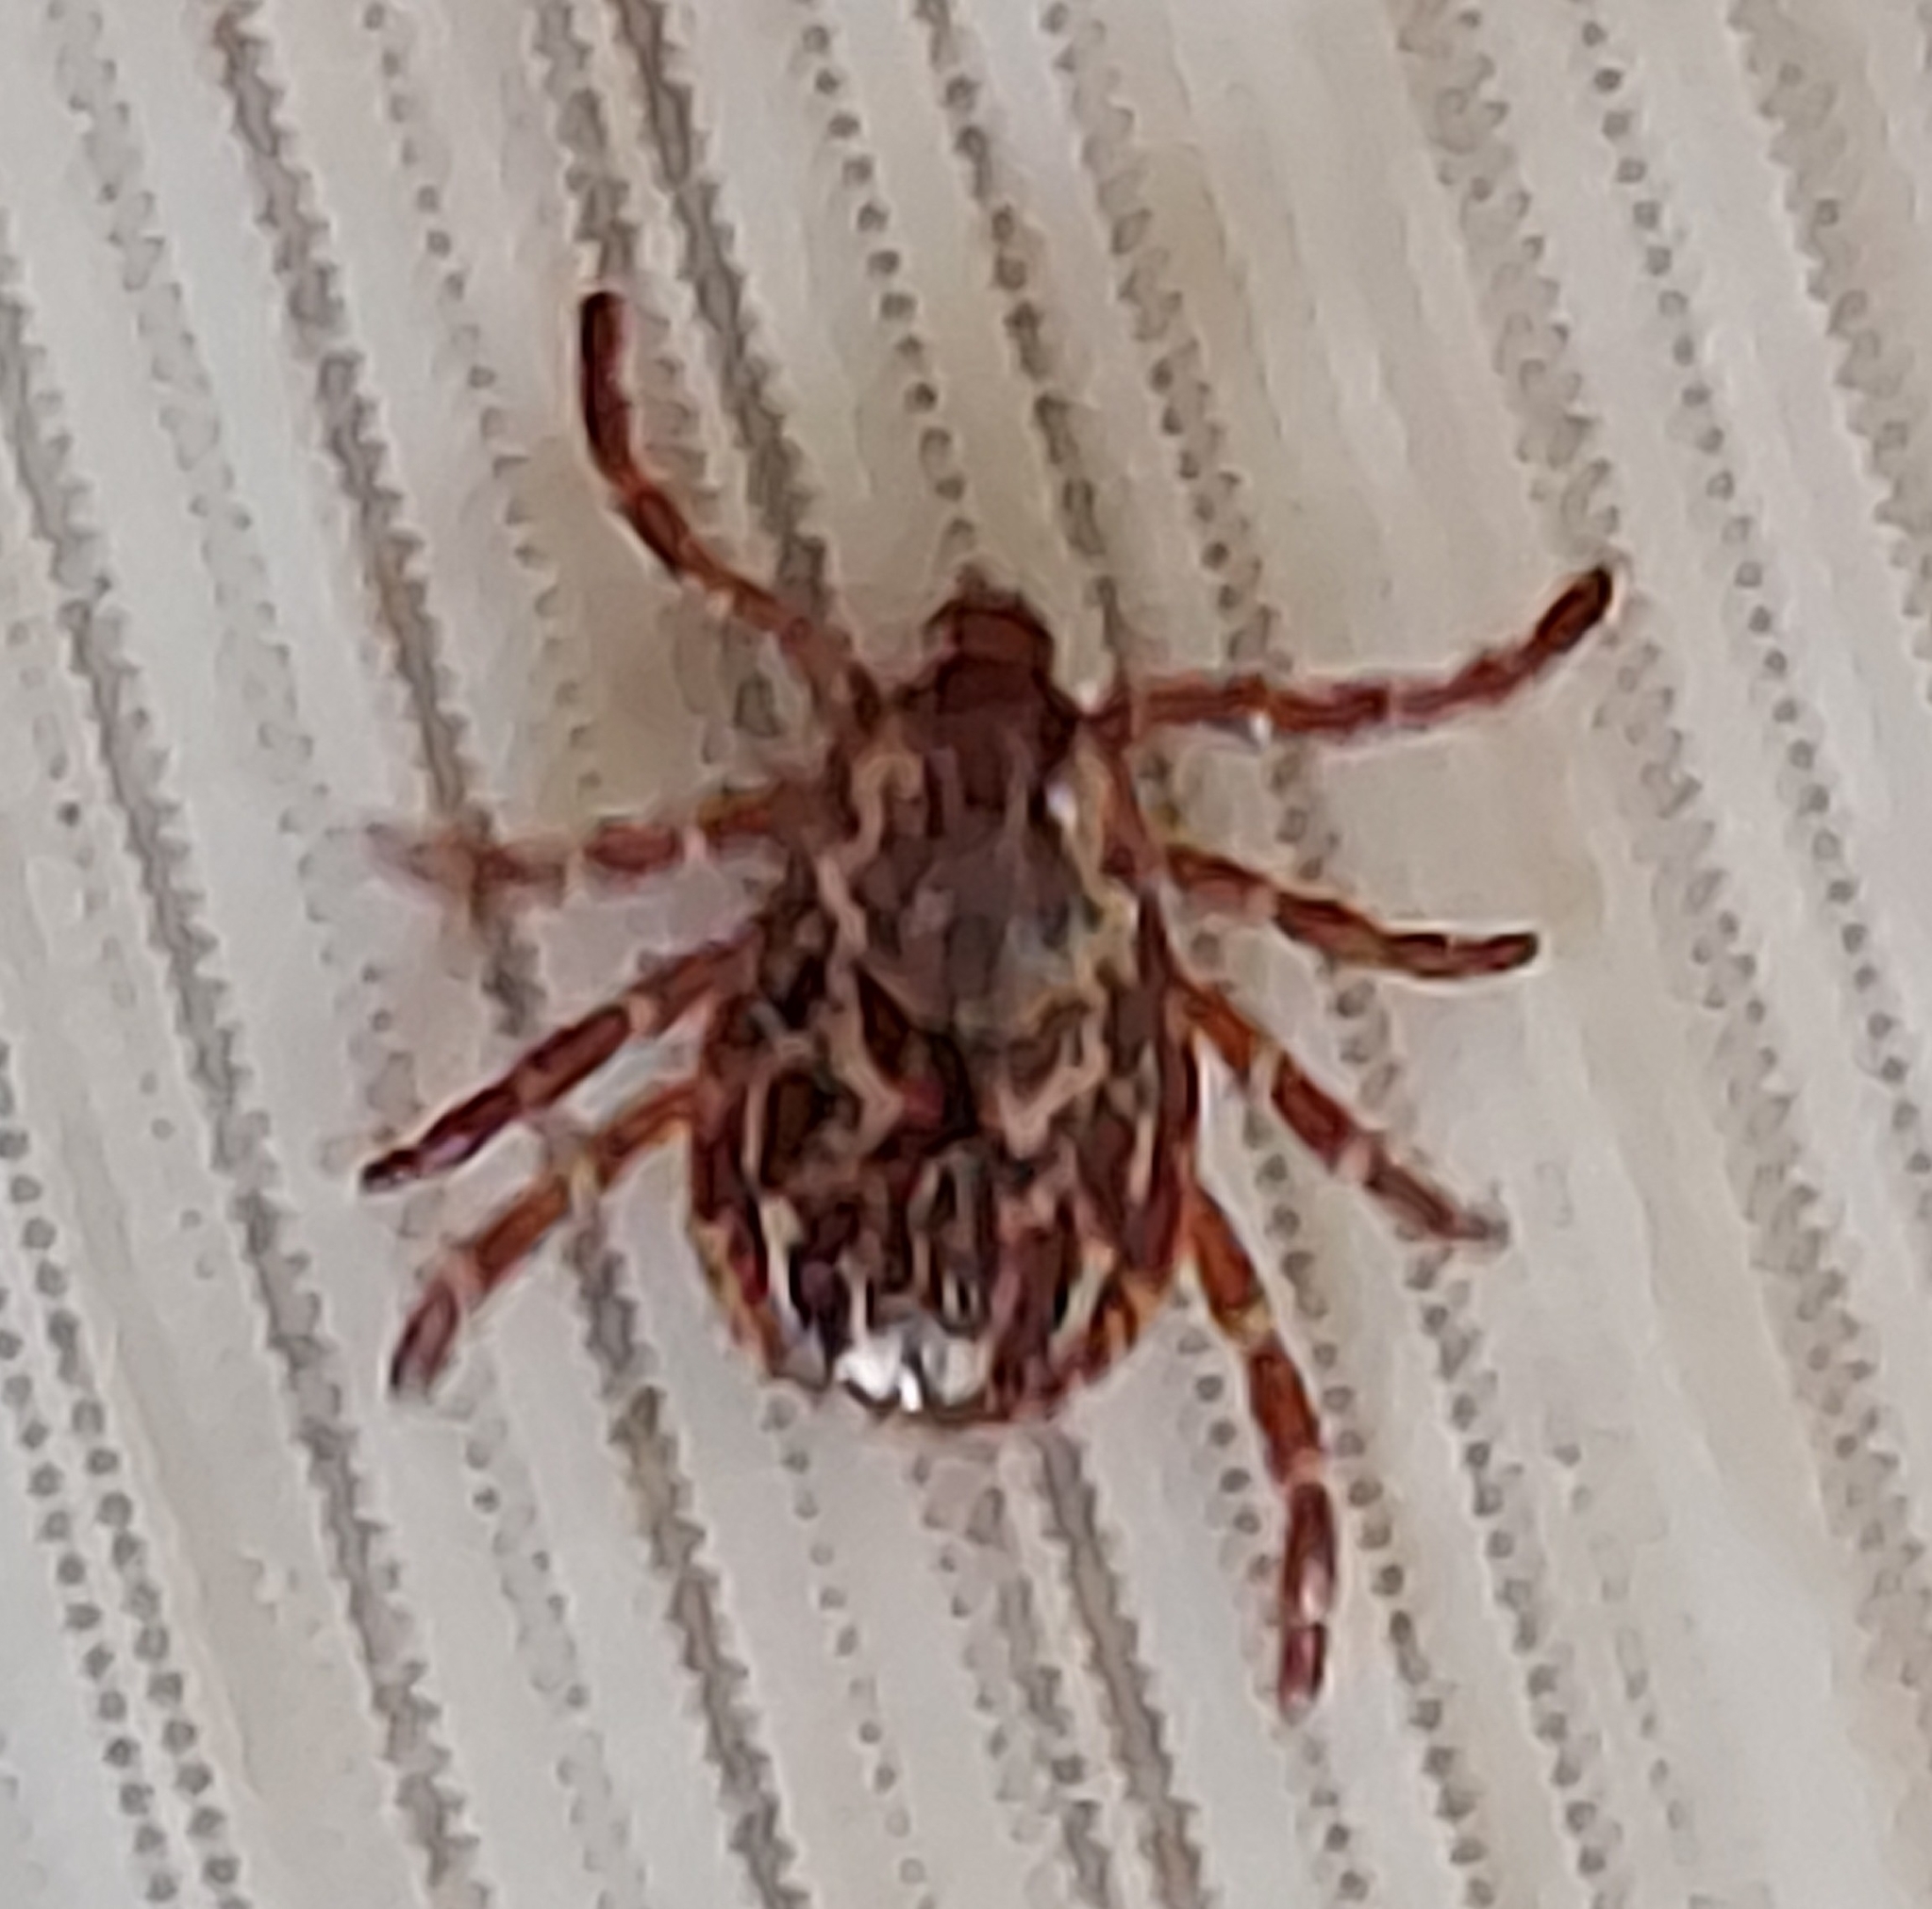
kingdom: Animalia
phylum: Arthropoda
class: Arachnida
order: Ixodida
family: Ixodidae
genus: Dermacentor
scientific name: Dermacentor variabilis
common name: American dog tick
